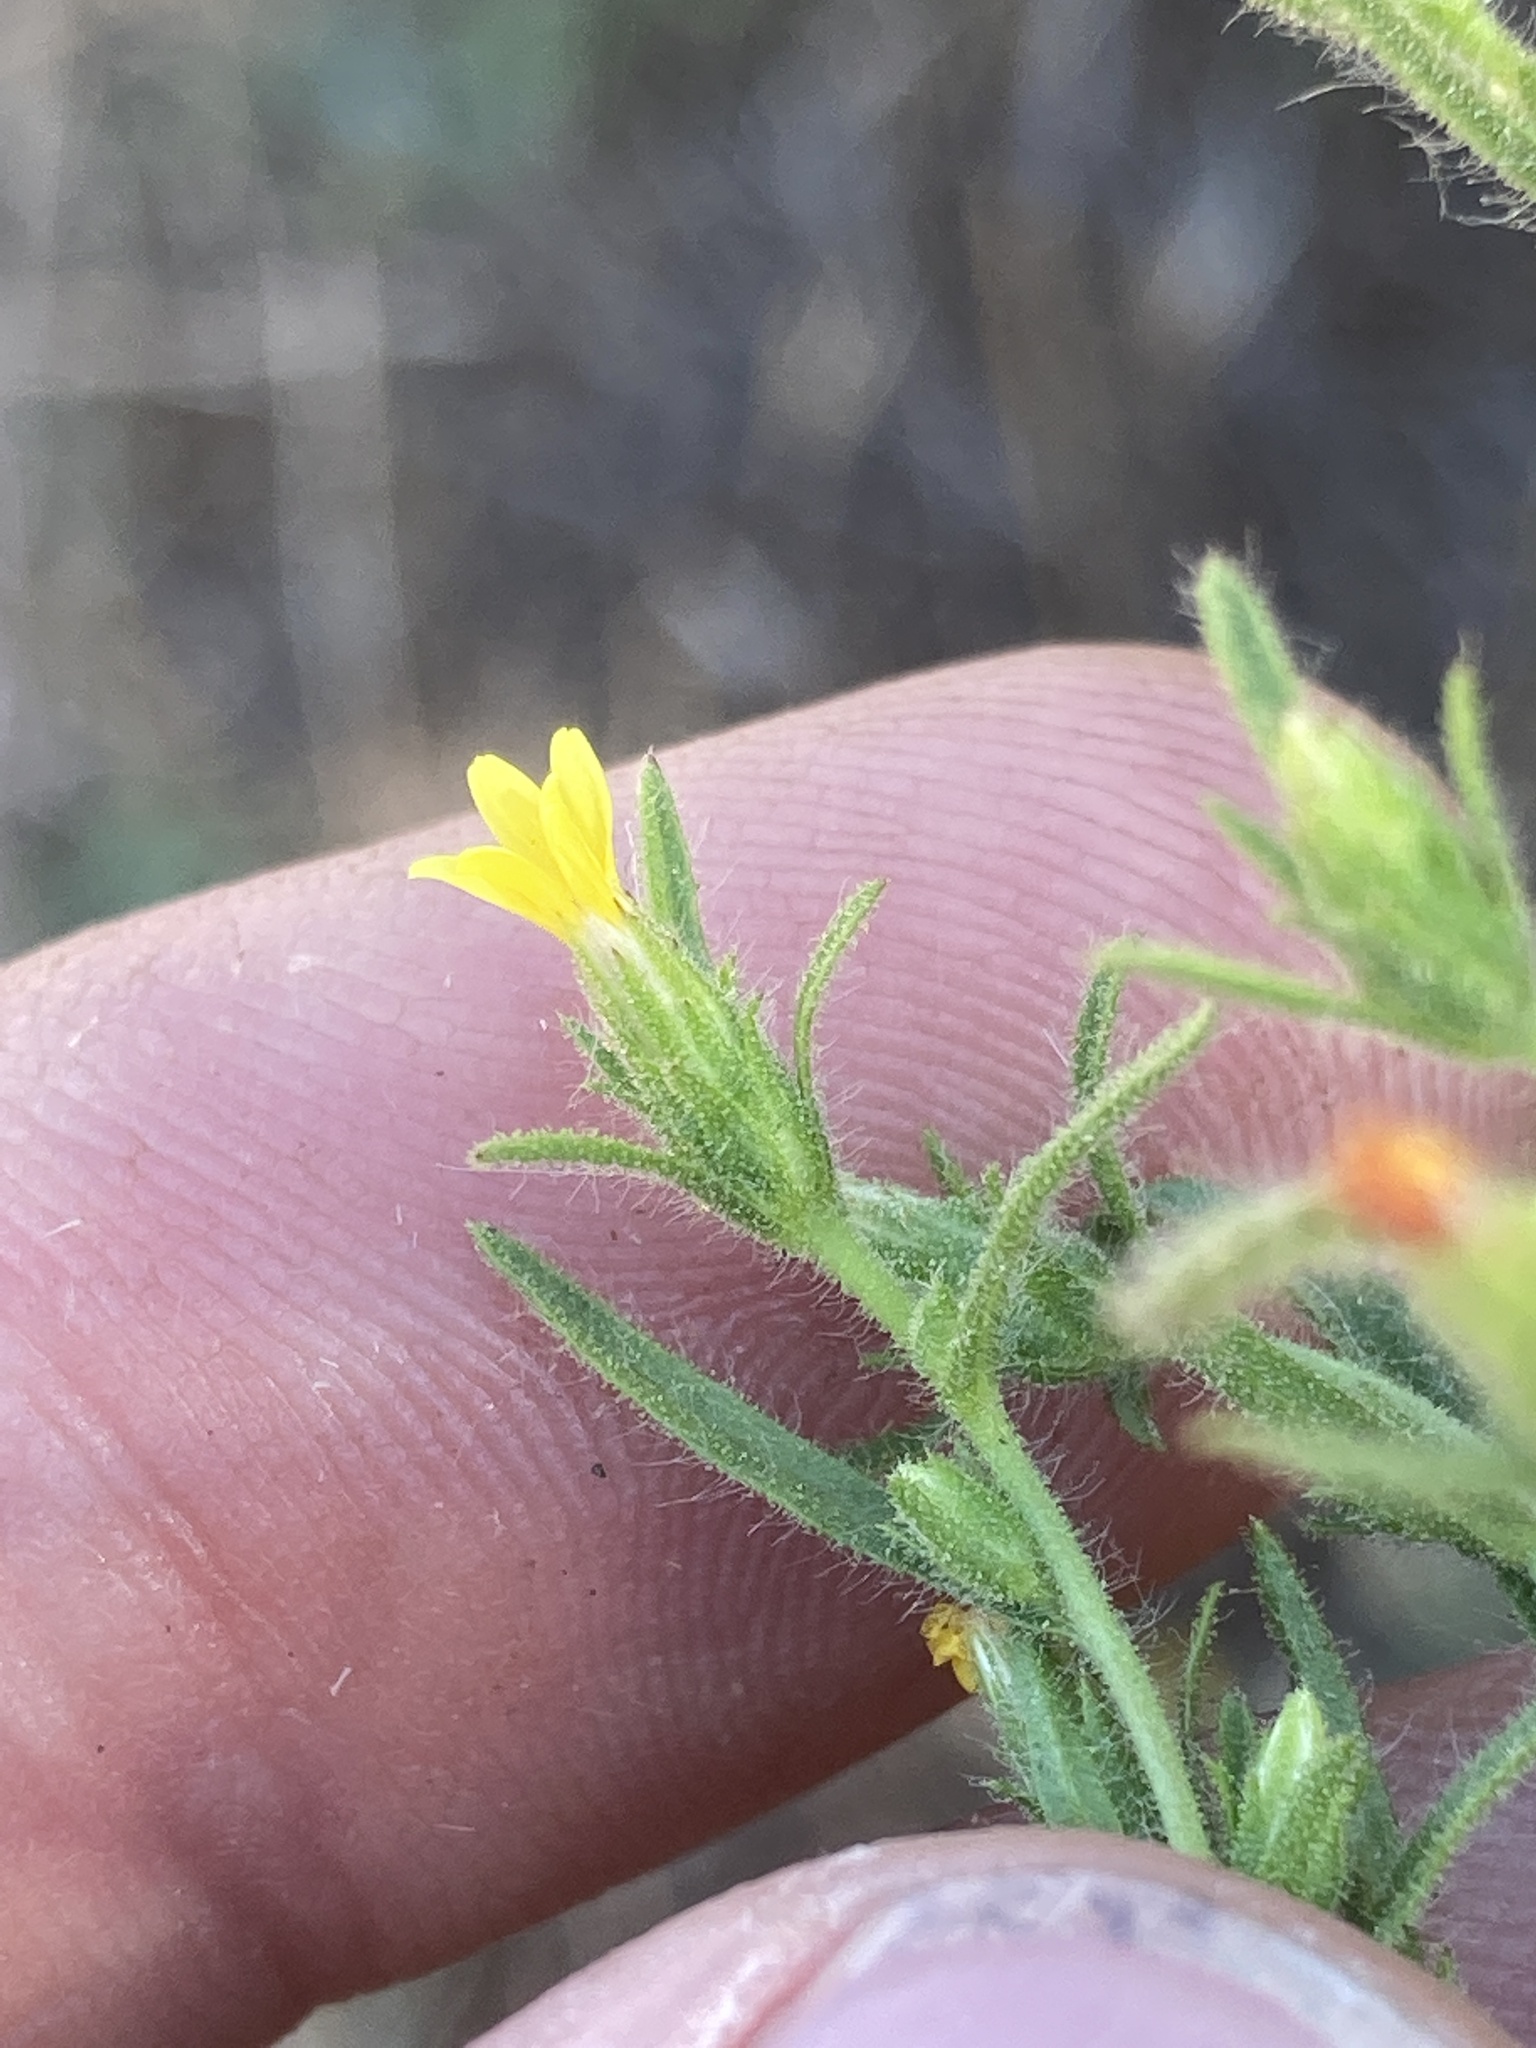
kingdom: Plantae
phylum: Tracheophyta
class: Magnoliopsida
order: Asterales
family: Asteraceae
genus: Dittrichia
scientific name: Dittrichia graveolens
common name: Stinking fleabane
